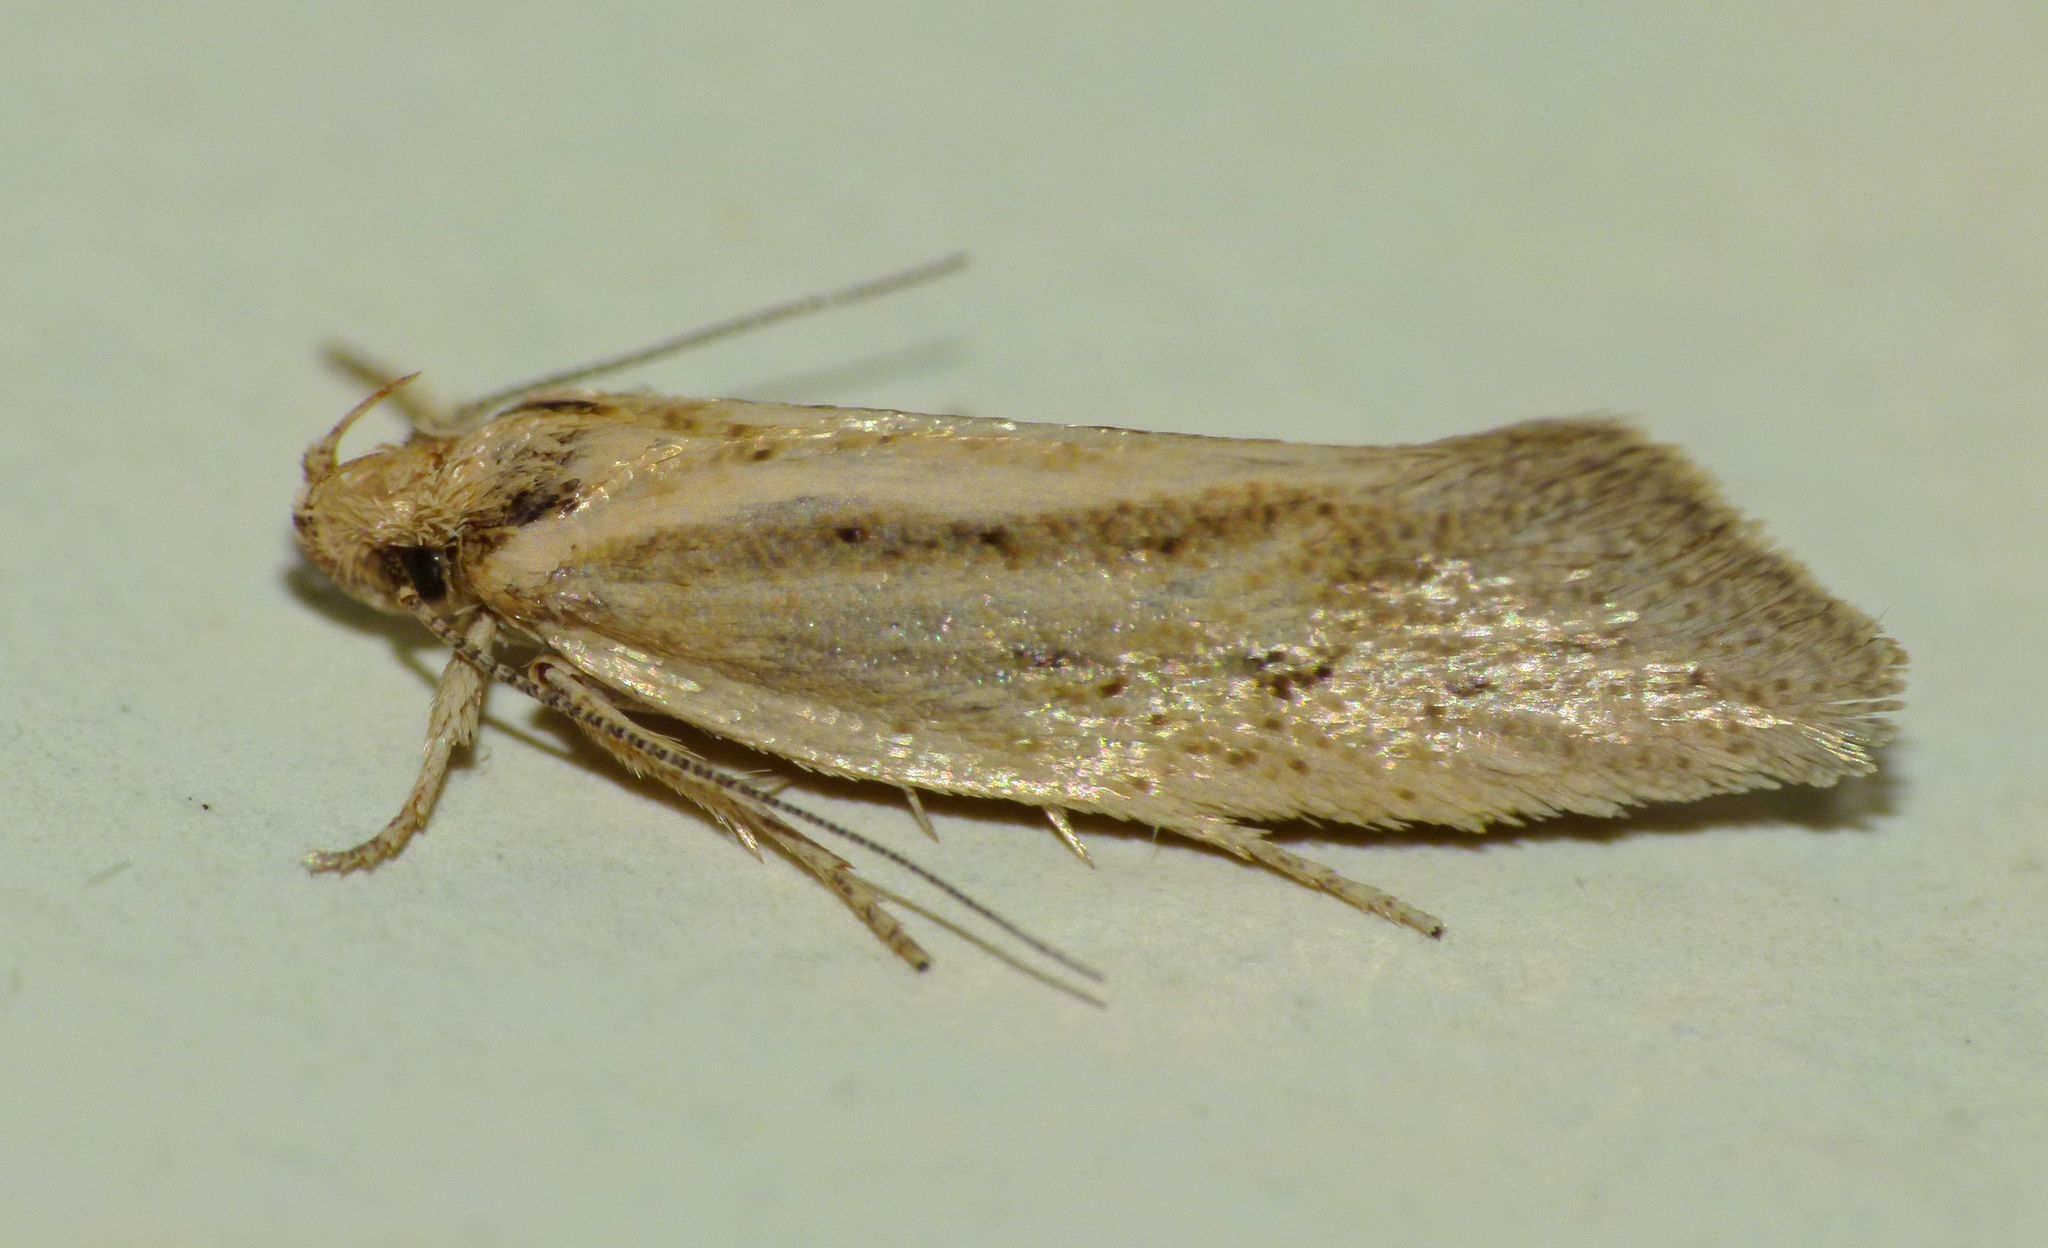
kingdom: Animalia
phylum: Arthropoda
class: Insecta
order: Lepidoptera
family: Oecophoridae
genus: Tingena
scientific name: Tingena chloradelpha
